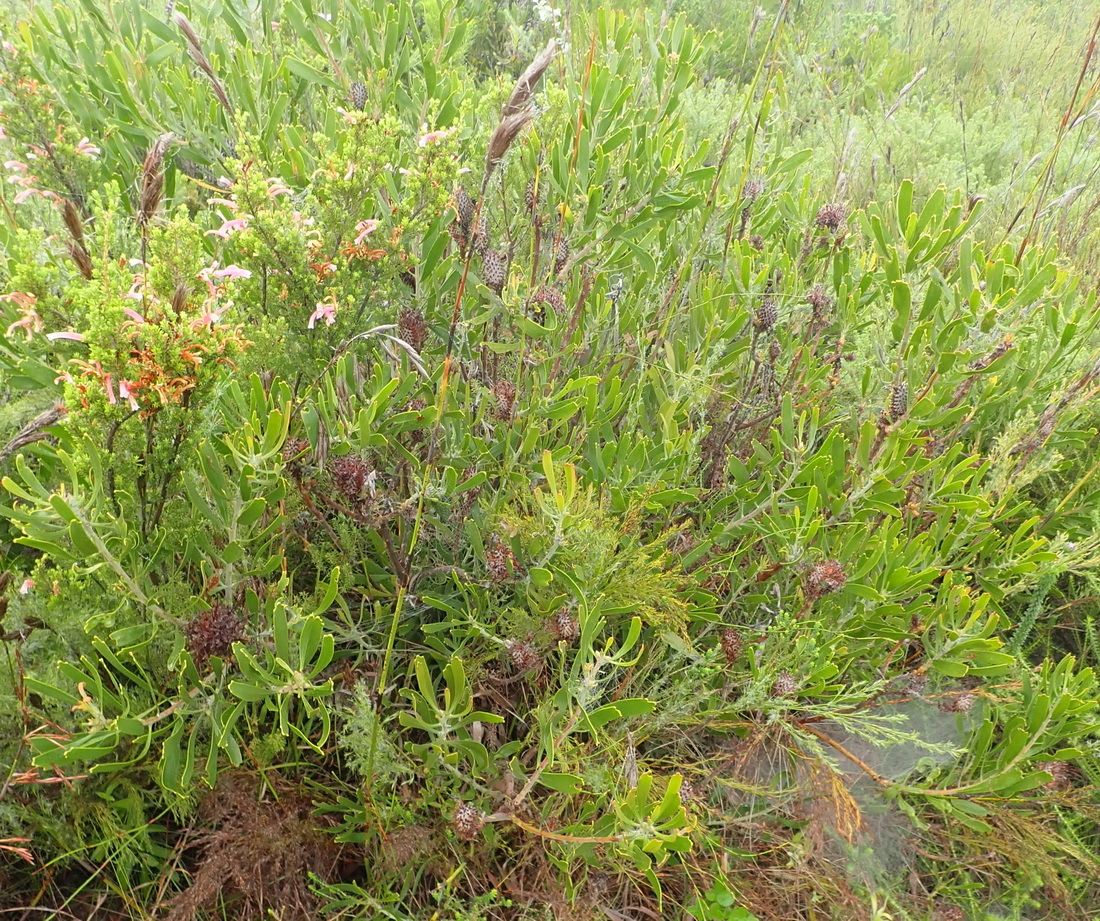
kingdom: Plantae
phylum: Tracheophyta
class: Magnoliopsida
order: Proteales
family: Proteaceae
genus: Leucospermum
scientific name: Leucospermum cuneiforme
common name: Common pincushion
